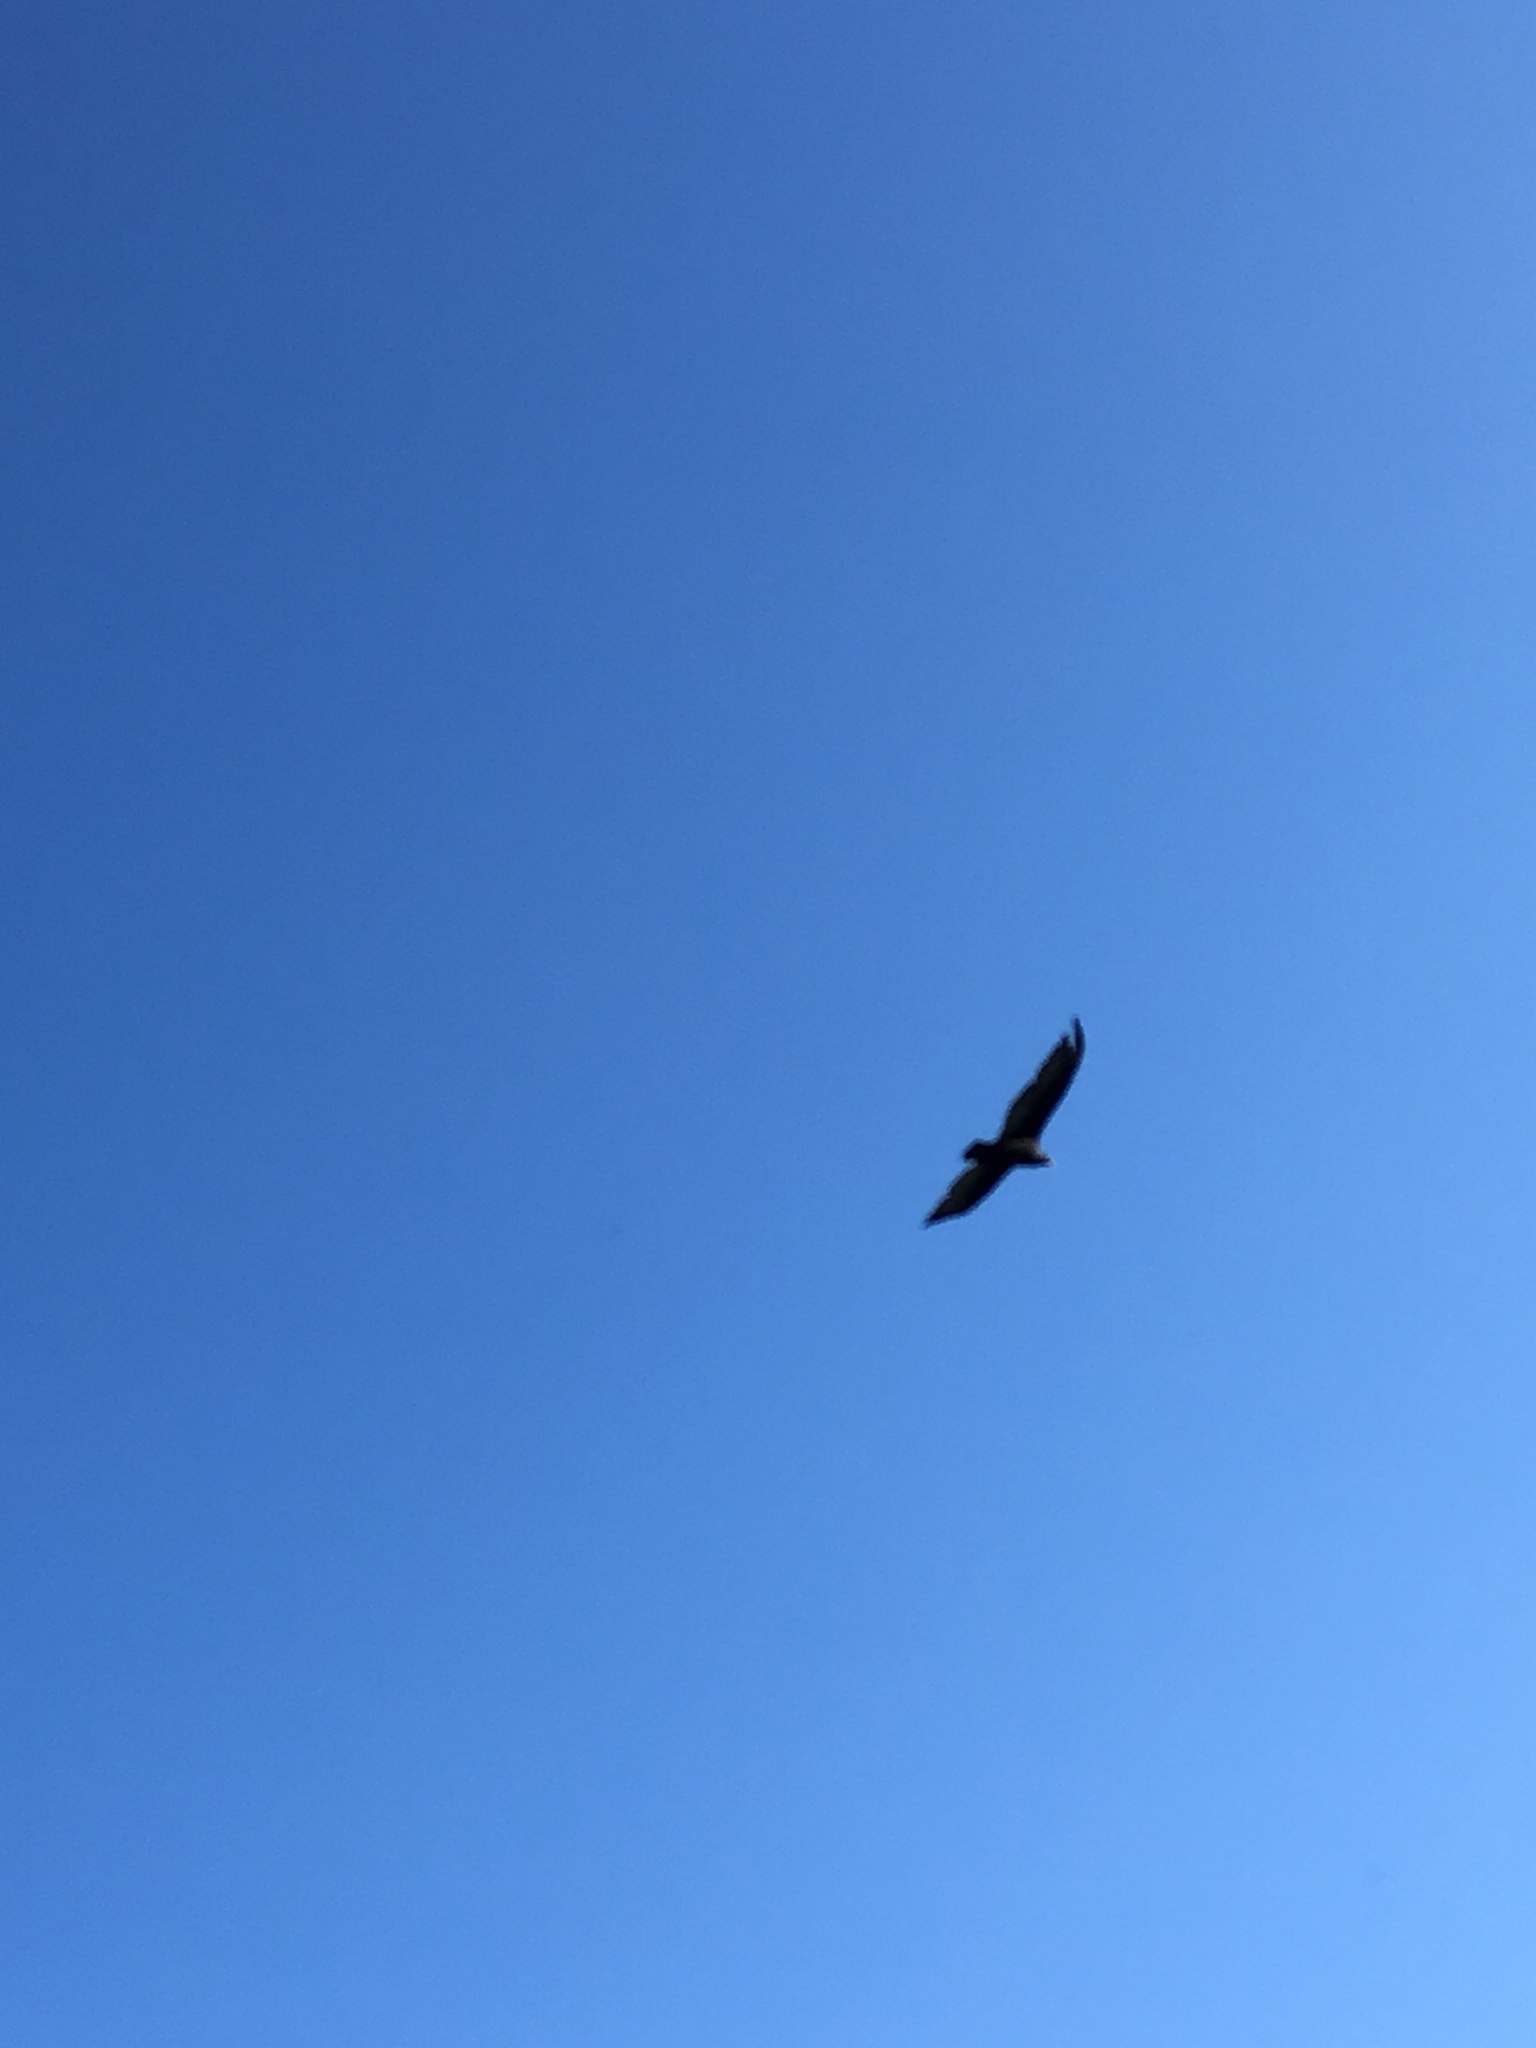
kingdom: Animalia
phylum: Chordata
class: Aves
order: Accipitriformes
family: Cathartidae
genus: Cathartes
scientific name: Cathartes aura
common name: Turkey vulture
